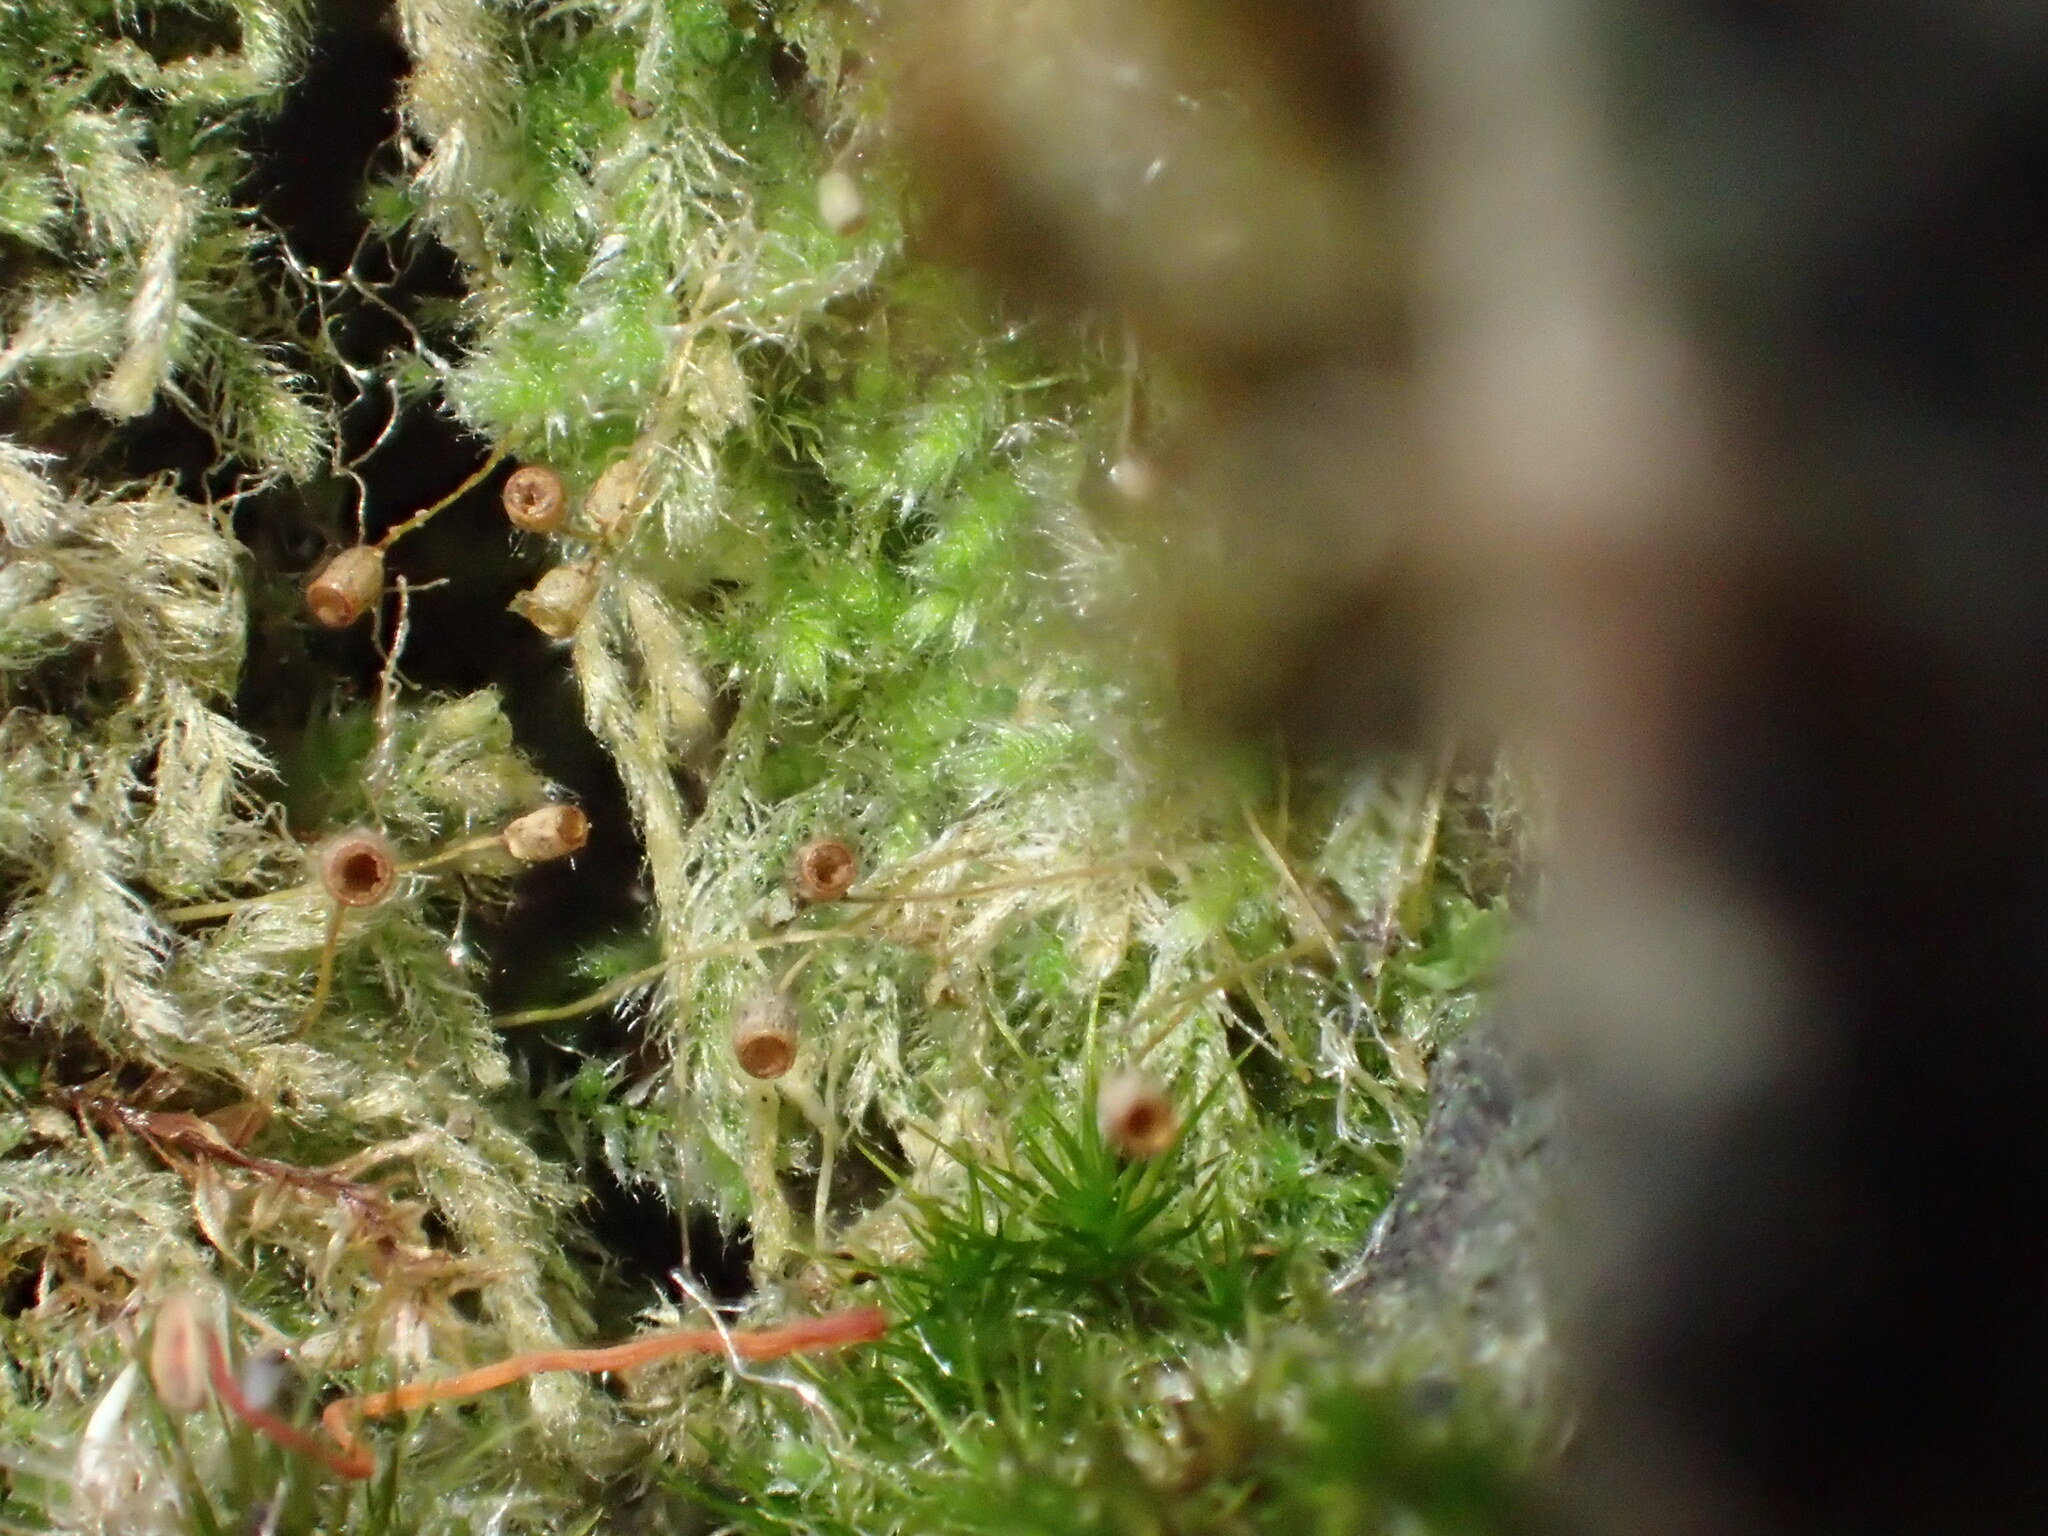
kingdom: Plantae
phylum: Bryophyta
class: Bryopsida
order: Hypnales
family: Fabroniaceae
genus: Fabronia
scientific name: Fabronia hampeana
